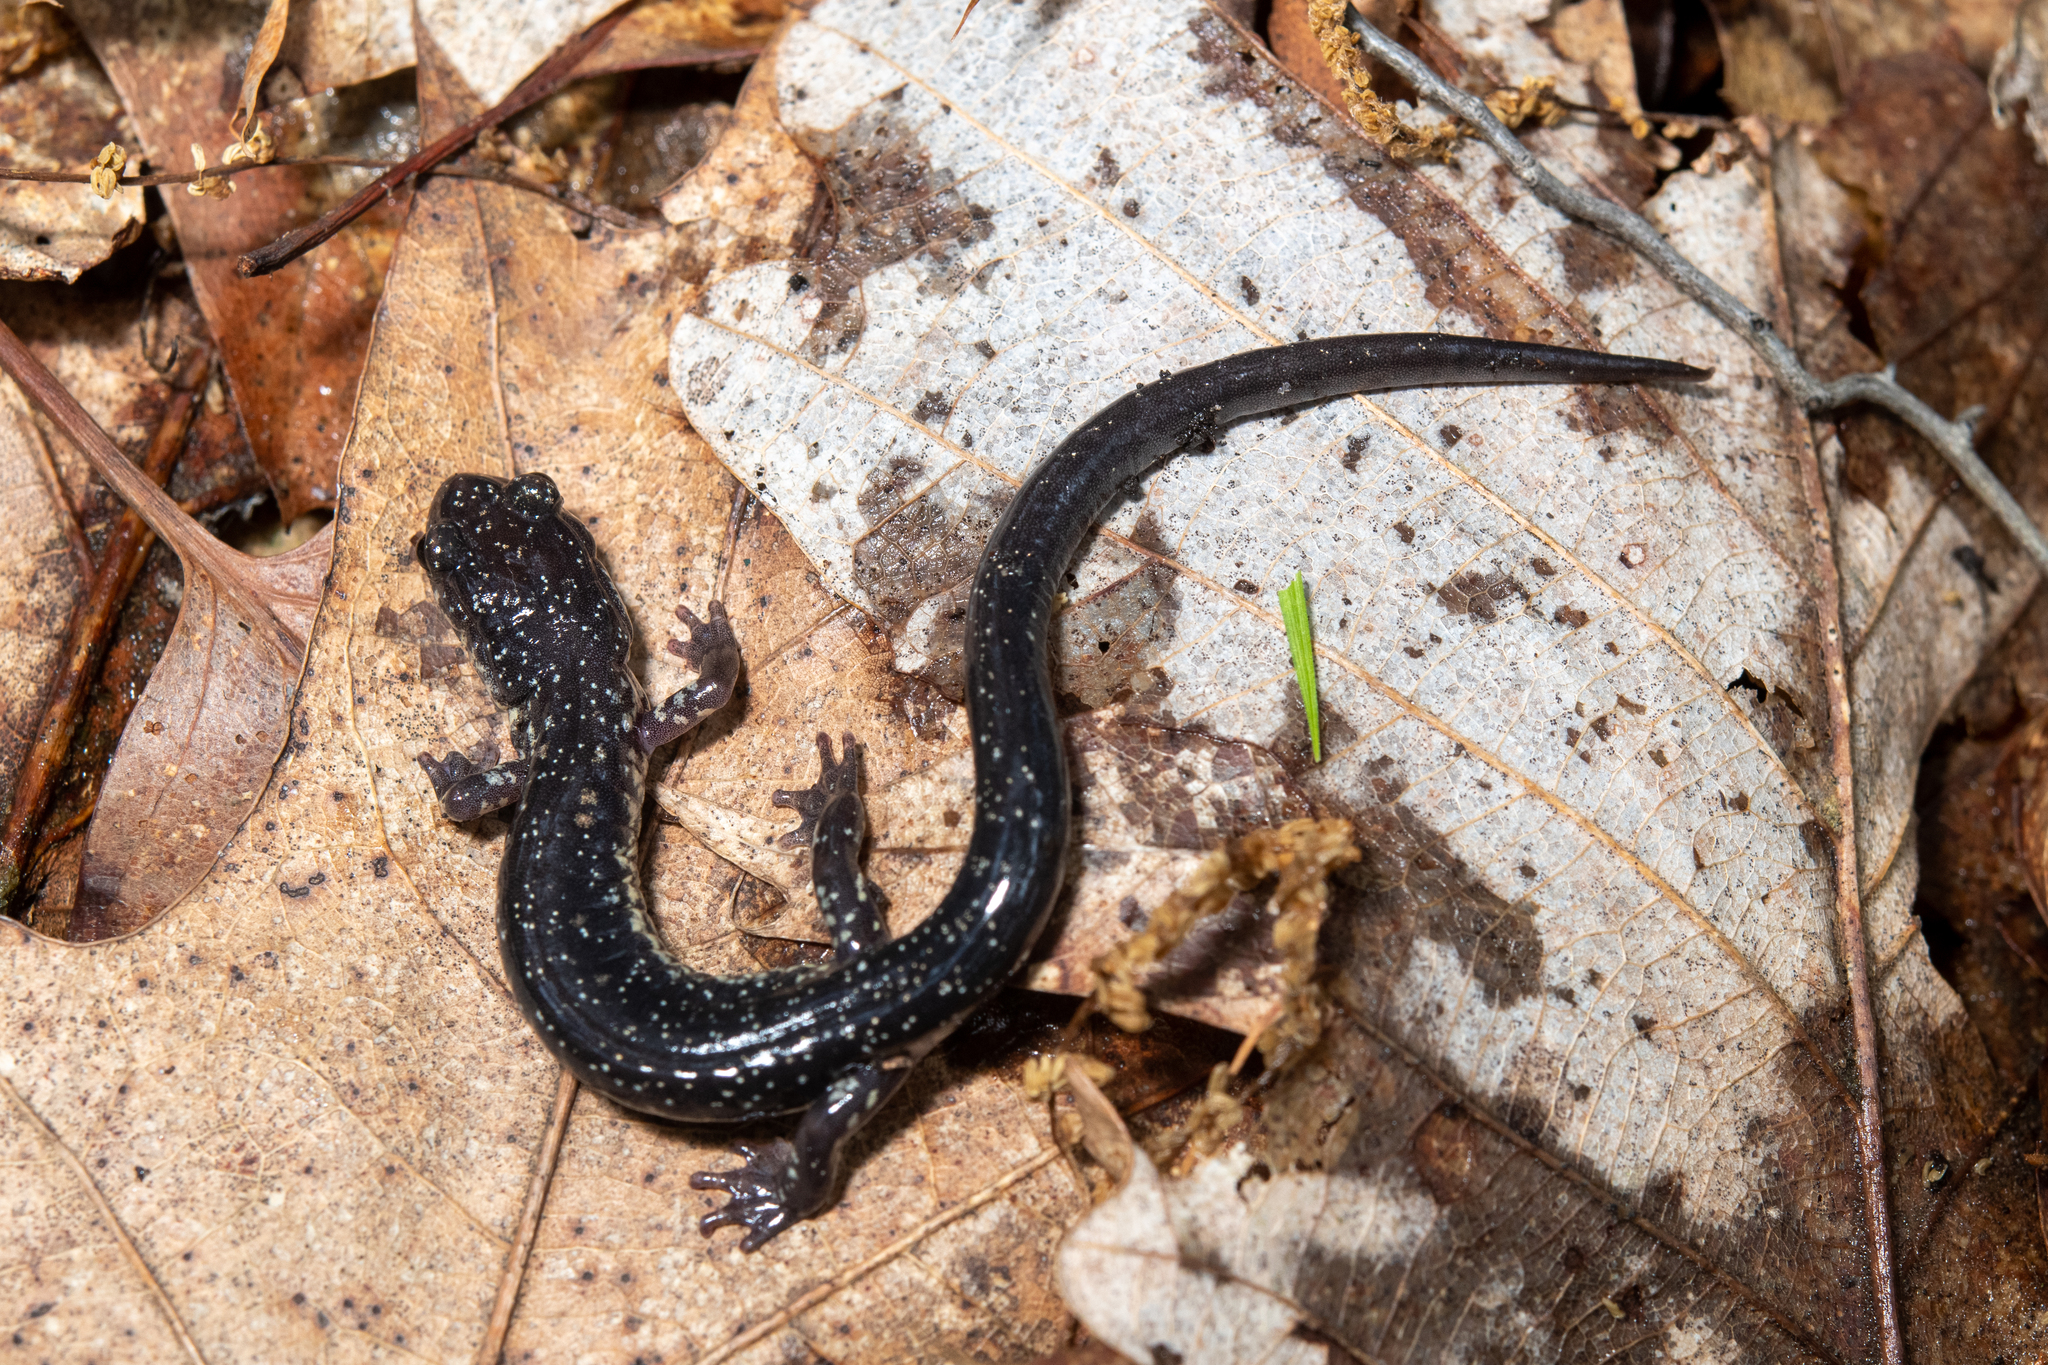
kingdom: Animalia
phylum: Chordata
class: Amphibia
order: Caudata
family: Plethodontidae
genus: Plethodon
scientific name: Plethodon wehrlei
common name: Wehrle's salamander
